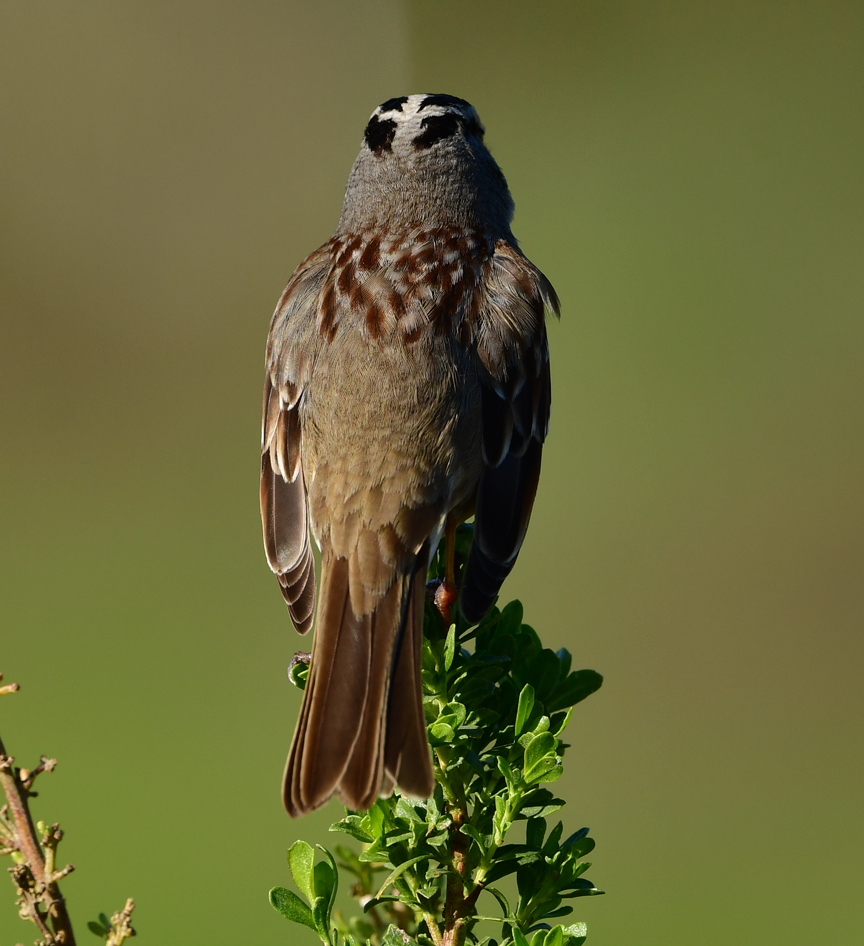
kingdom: Animalia
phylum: Chordata
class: Aves
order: Passeriformes
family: Passerellidae
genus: Zonotrichia
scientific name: Zonotrichia leucophrys
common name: White-crowned sparrow
